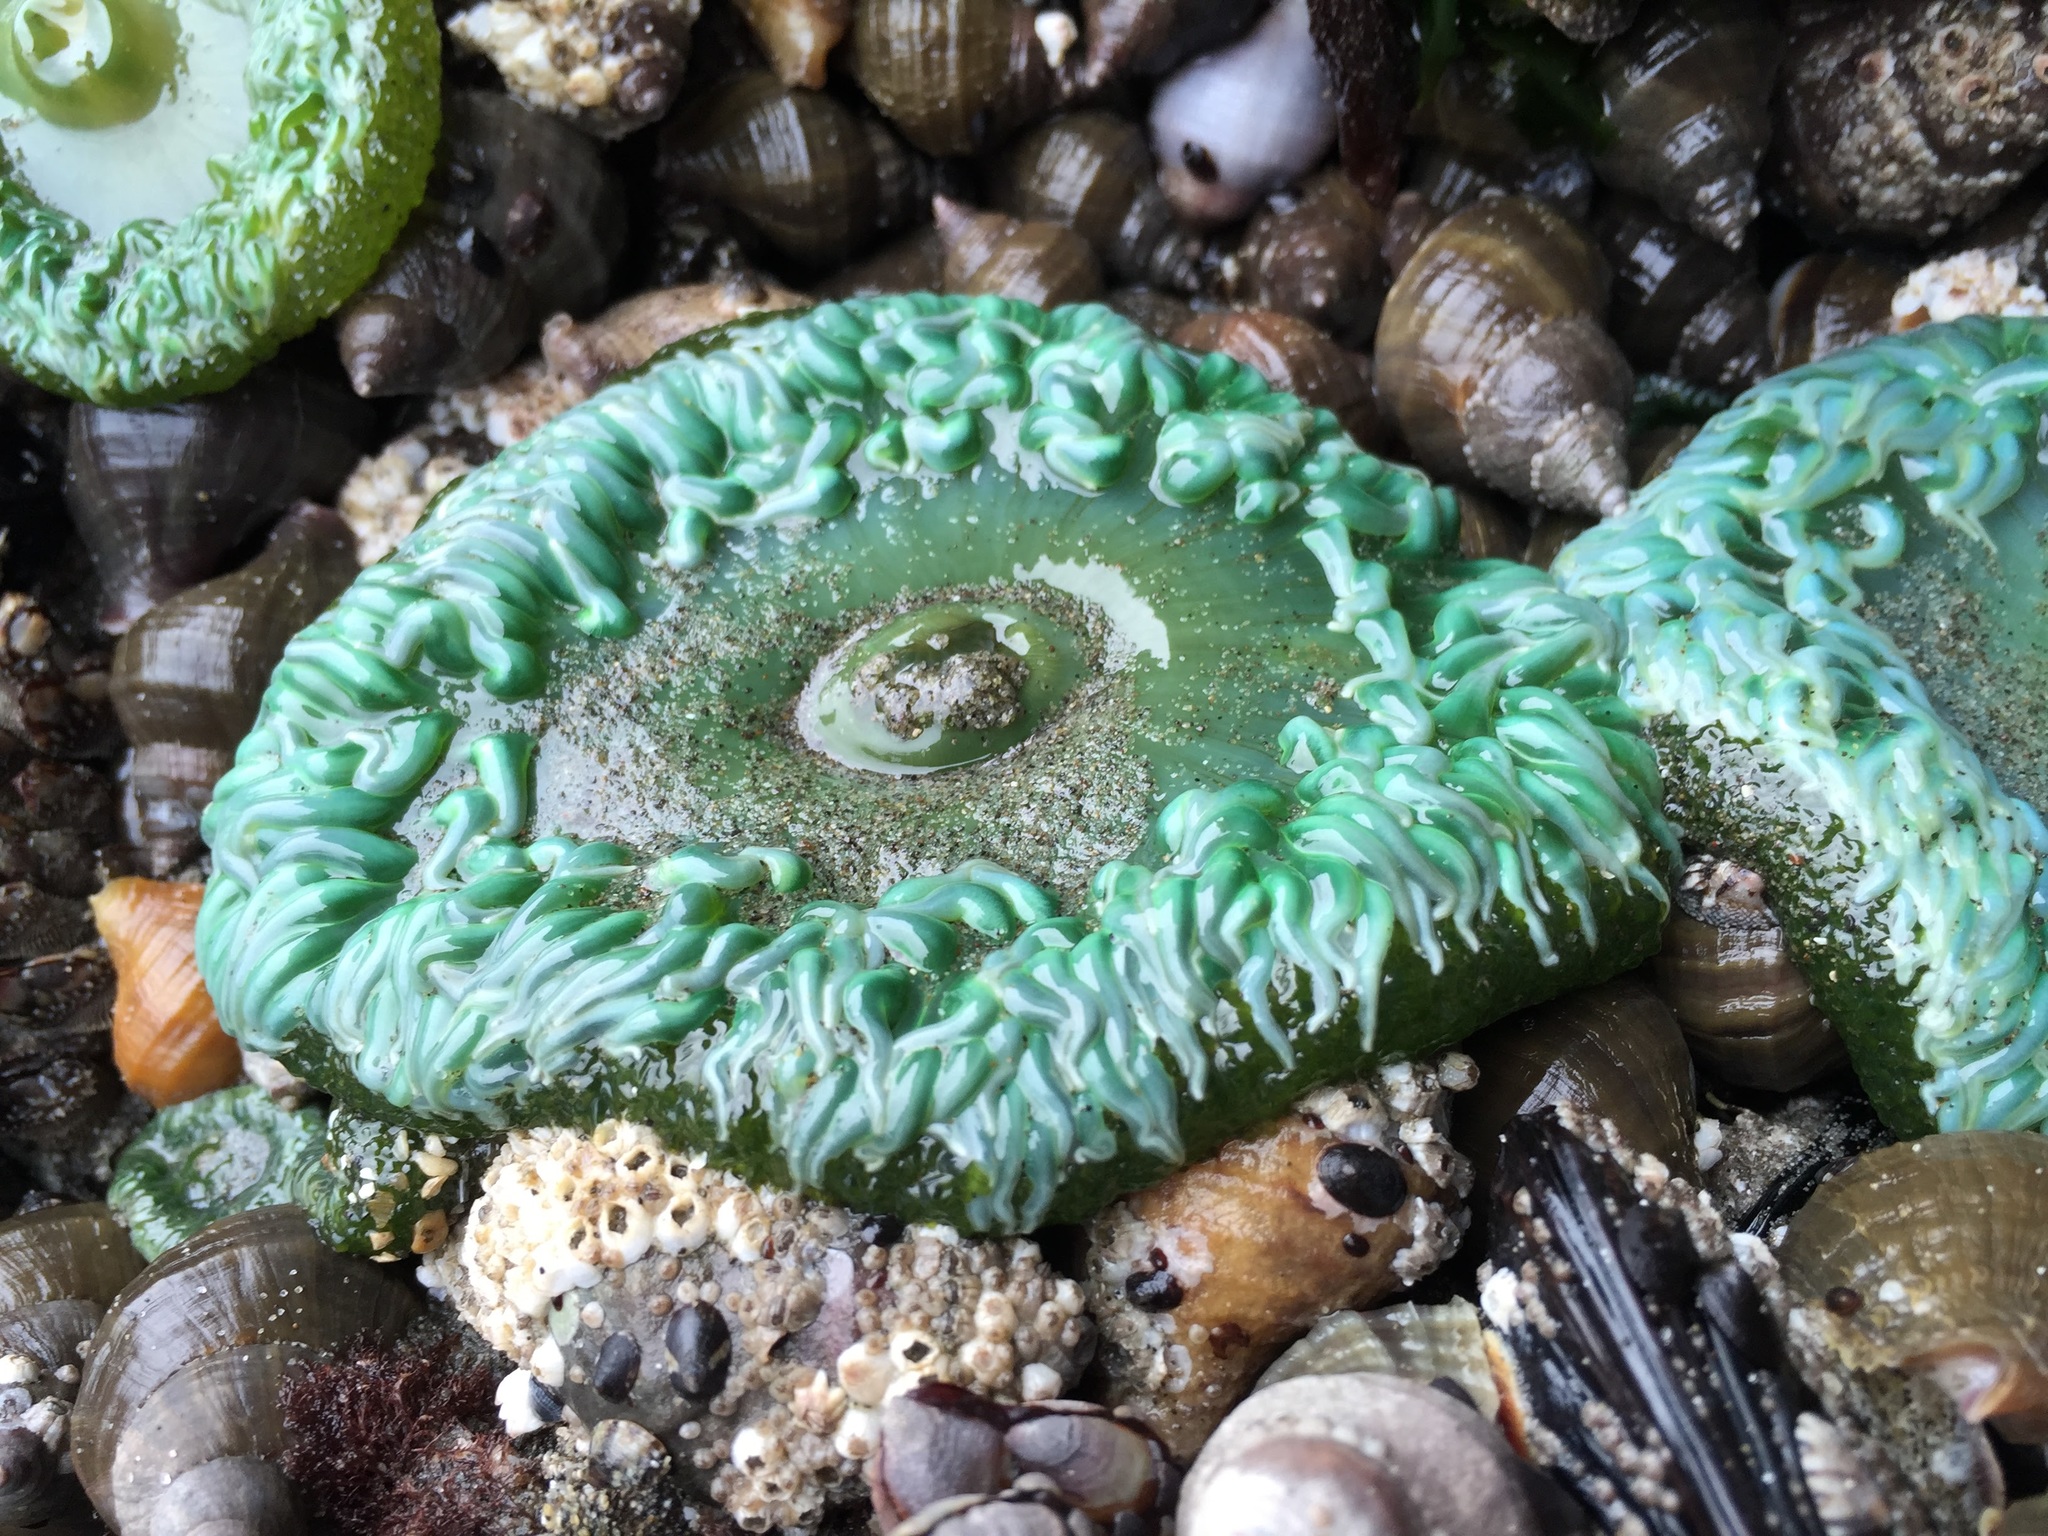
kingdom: Animalia
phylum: Cnidaria
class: Anthozoa
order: Actiniaria
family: Actiniidae
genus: Anthopleura
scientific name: Anthopleura xanthogrammica
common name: Giant green anemone
